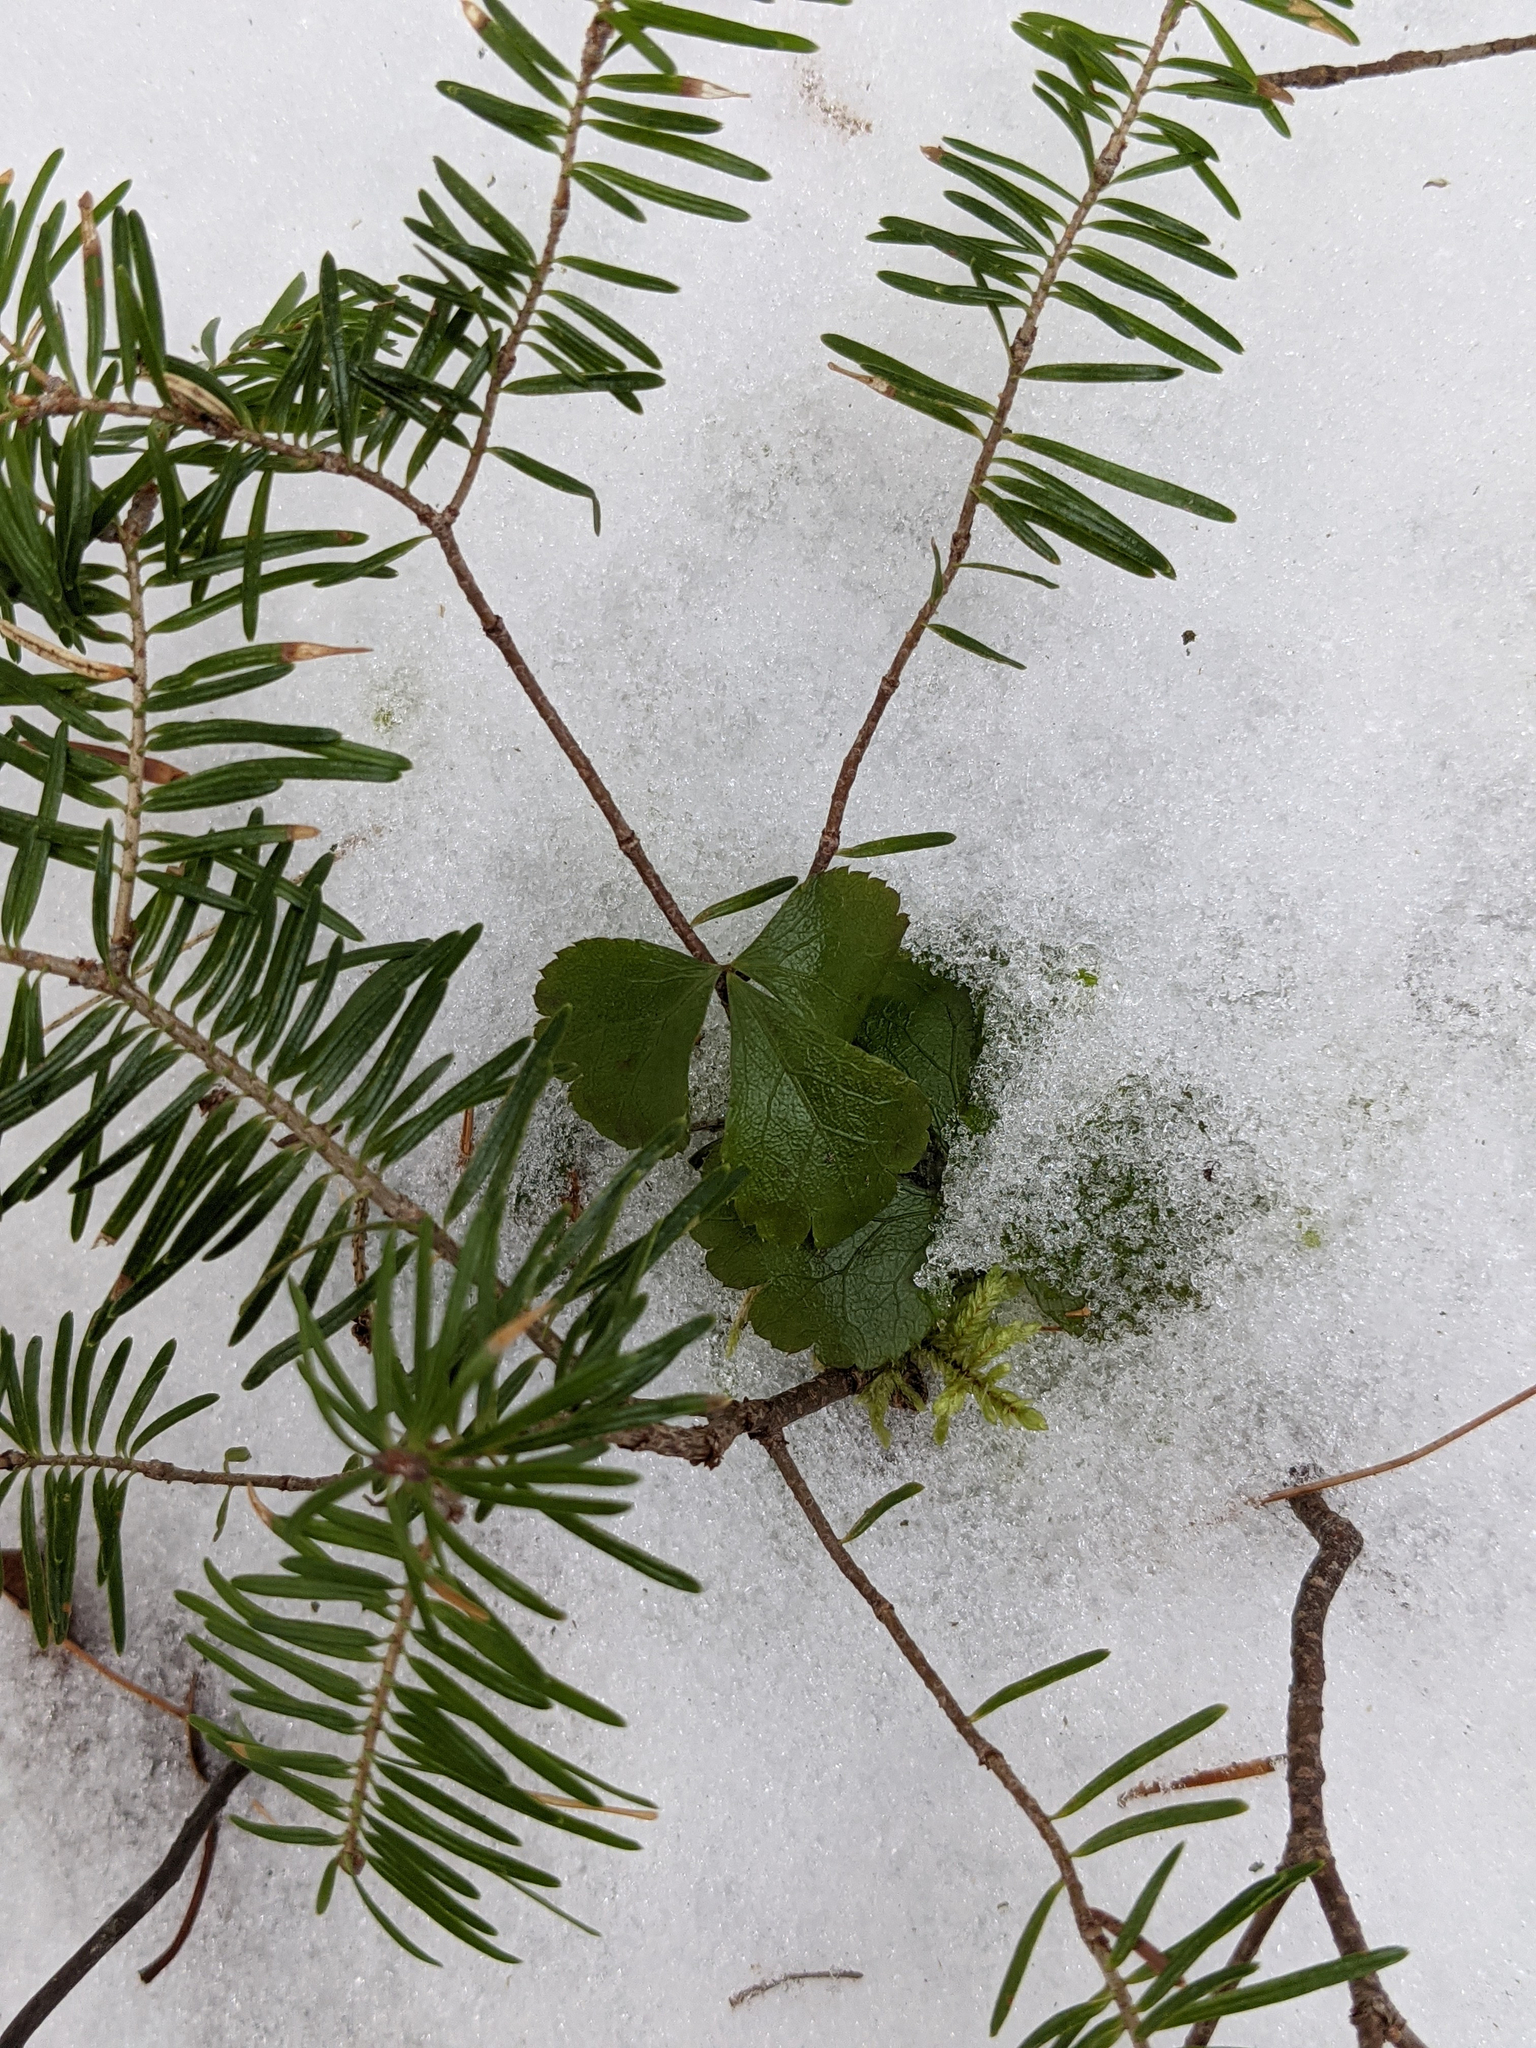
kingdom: Plantae
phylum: Tracheophyta
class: Magnoliopsida
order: Ranunculales
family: Ranunculaceae
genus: Coptis
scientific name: Coptis trifolia
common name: Canker-root
